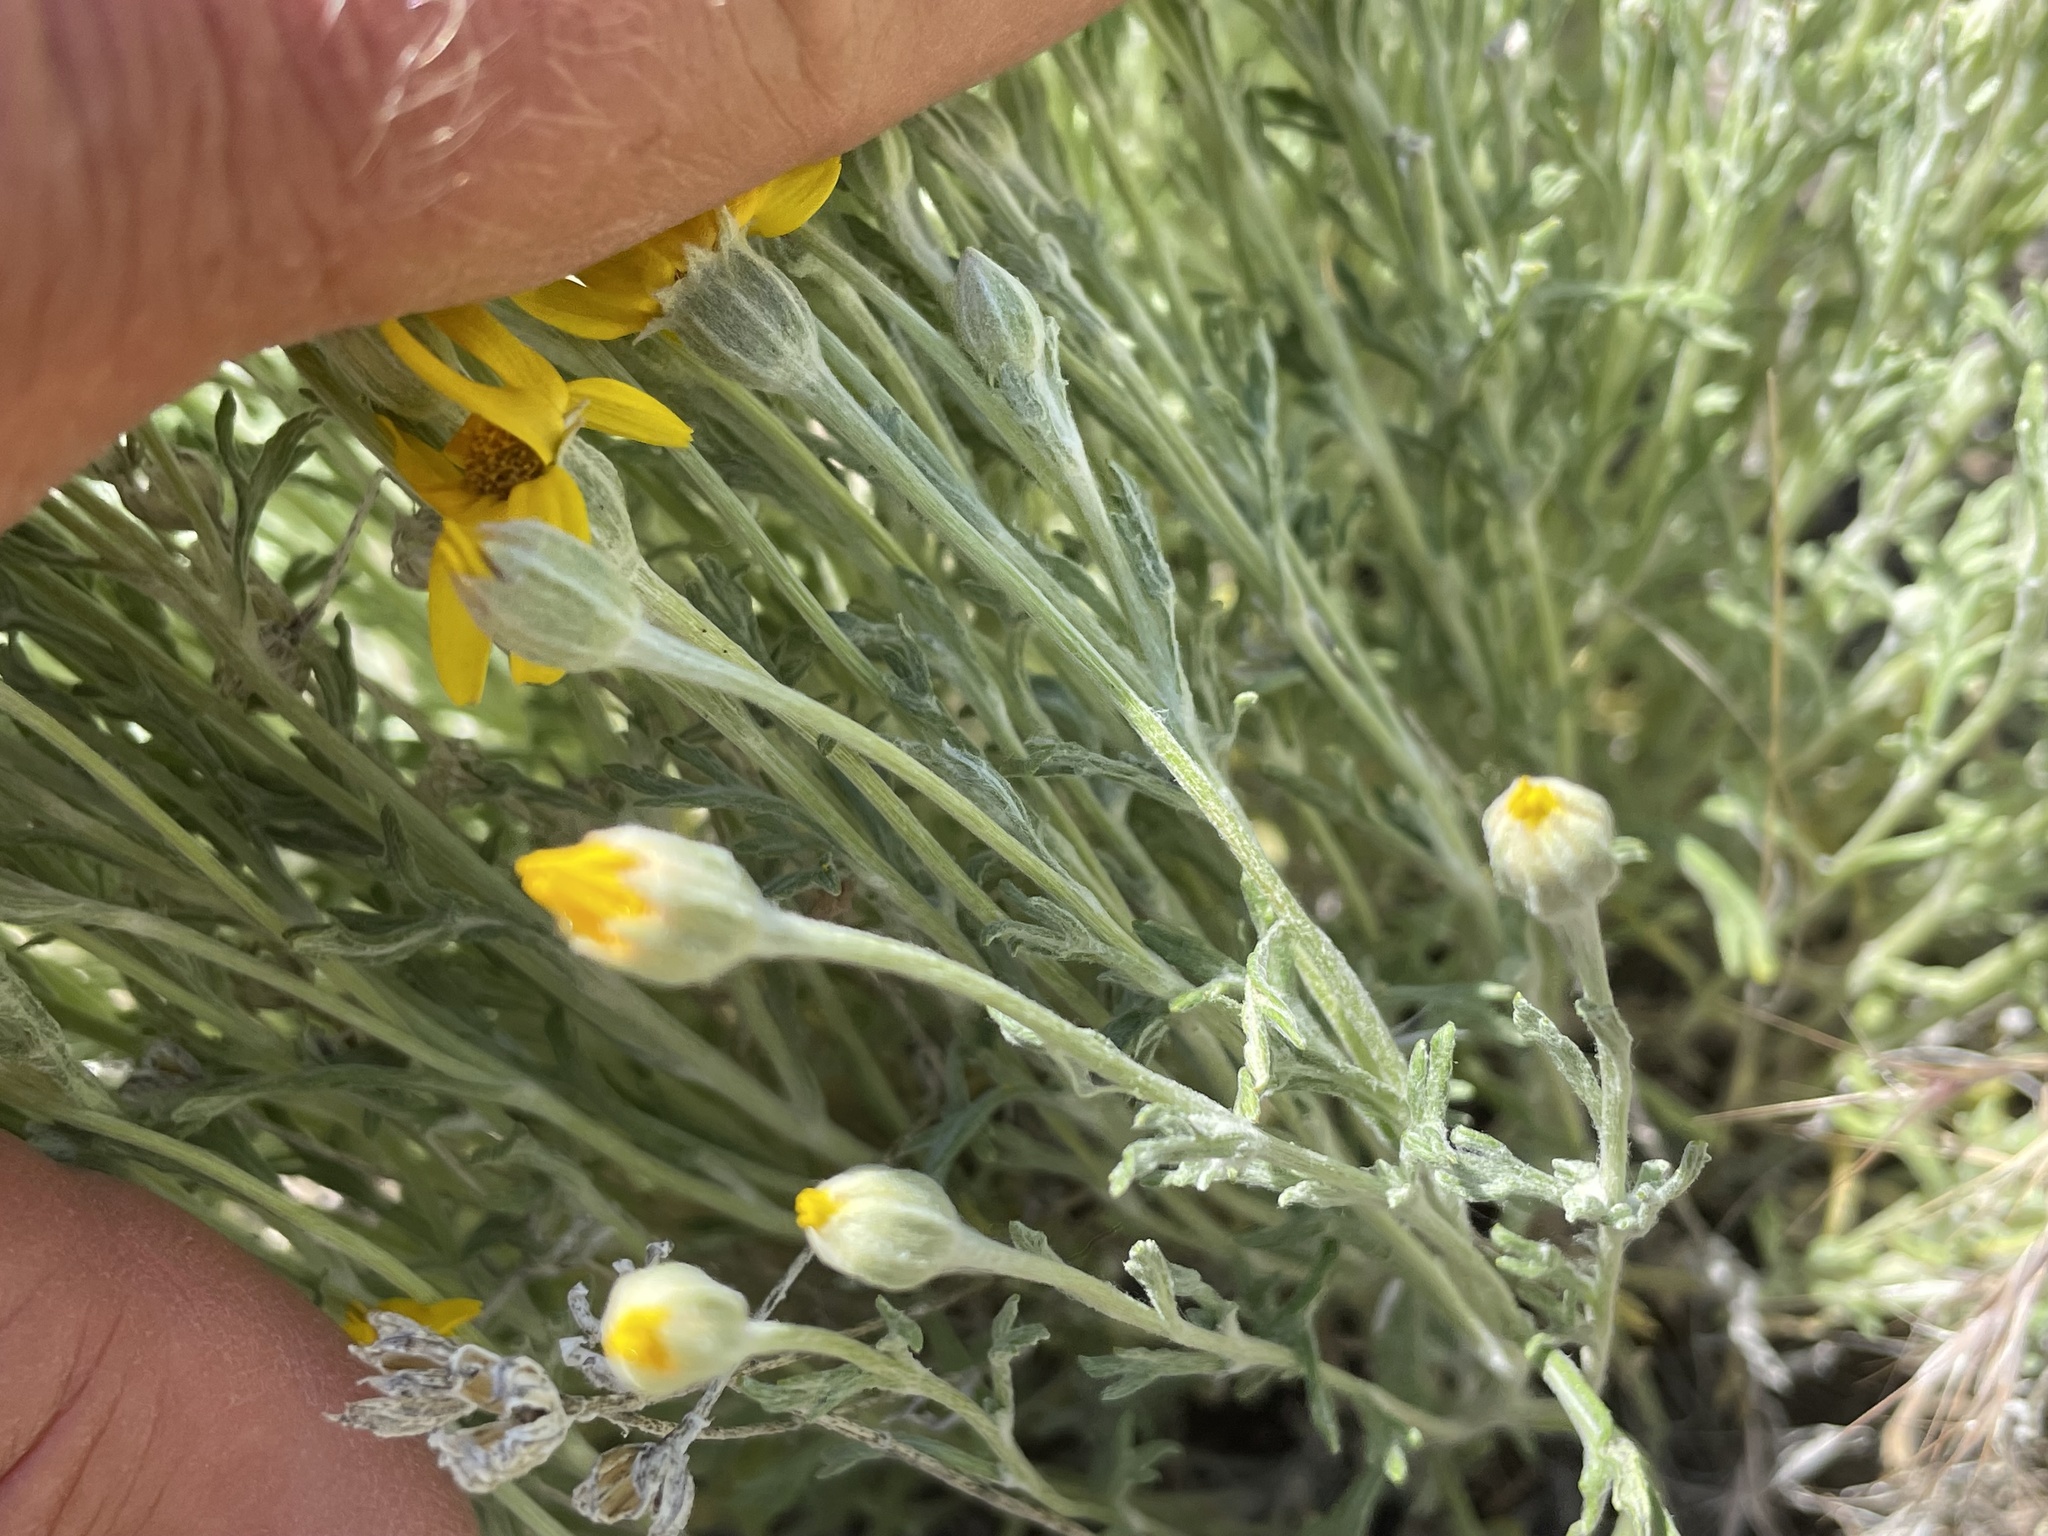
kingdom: Plantae
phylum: Tracheophyta
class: Magnoliopsida
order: Asterales
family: Asteraceae
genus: Eriophyllum
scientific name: Eriophyllum lanatum
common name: Common woolly-sunflower
